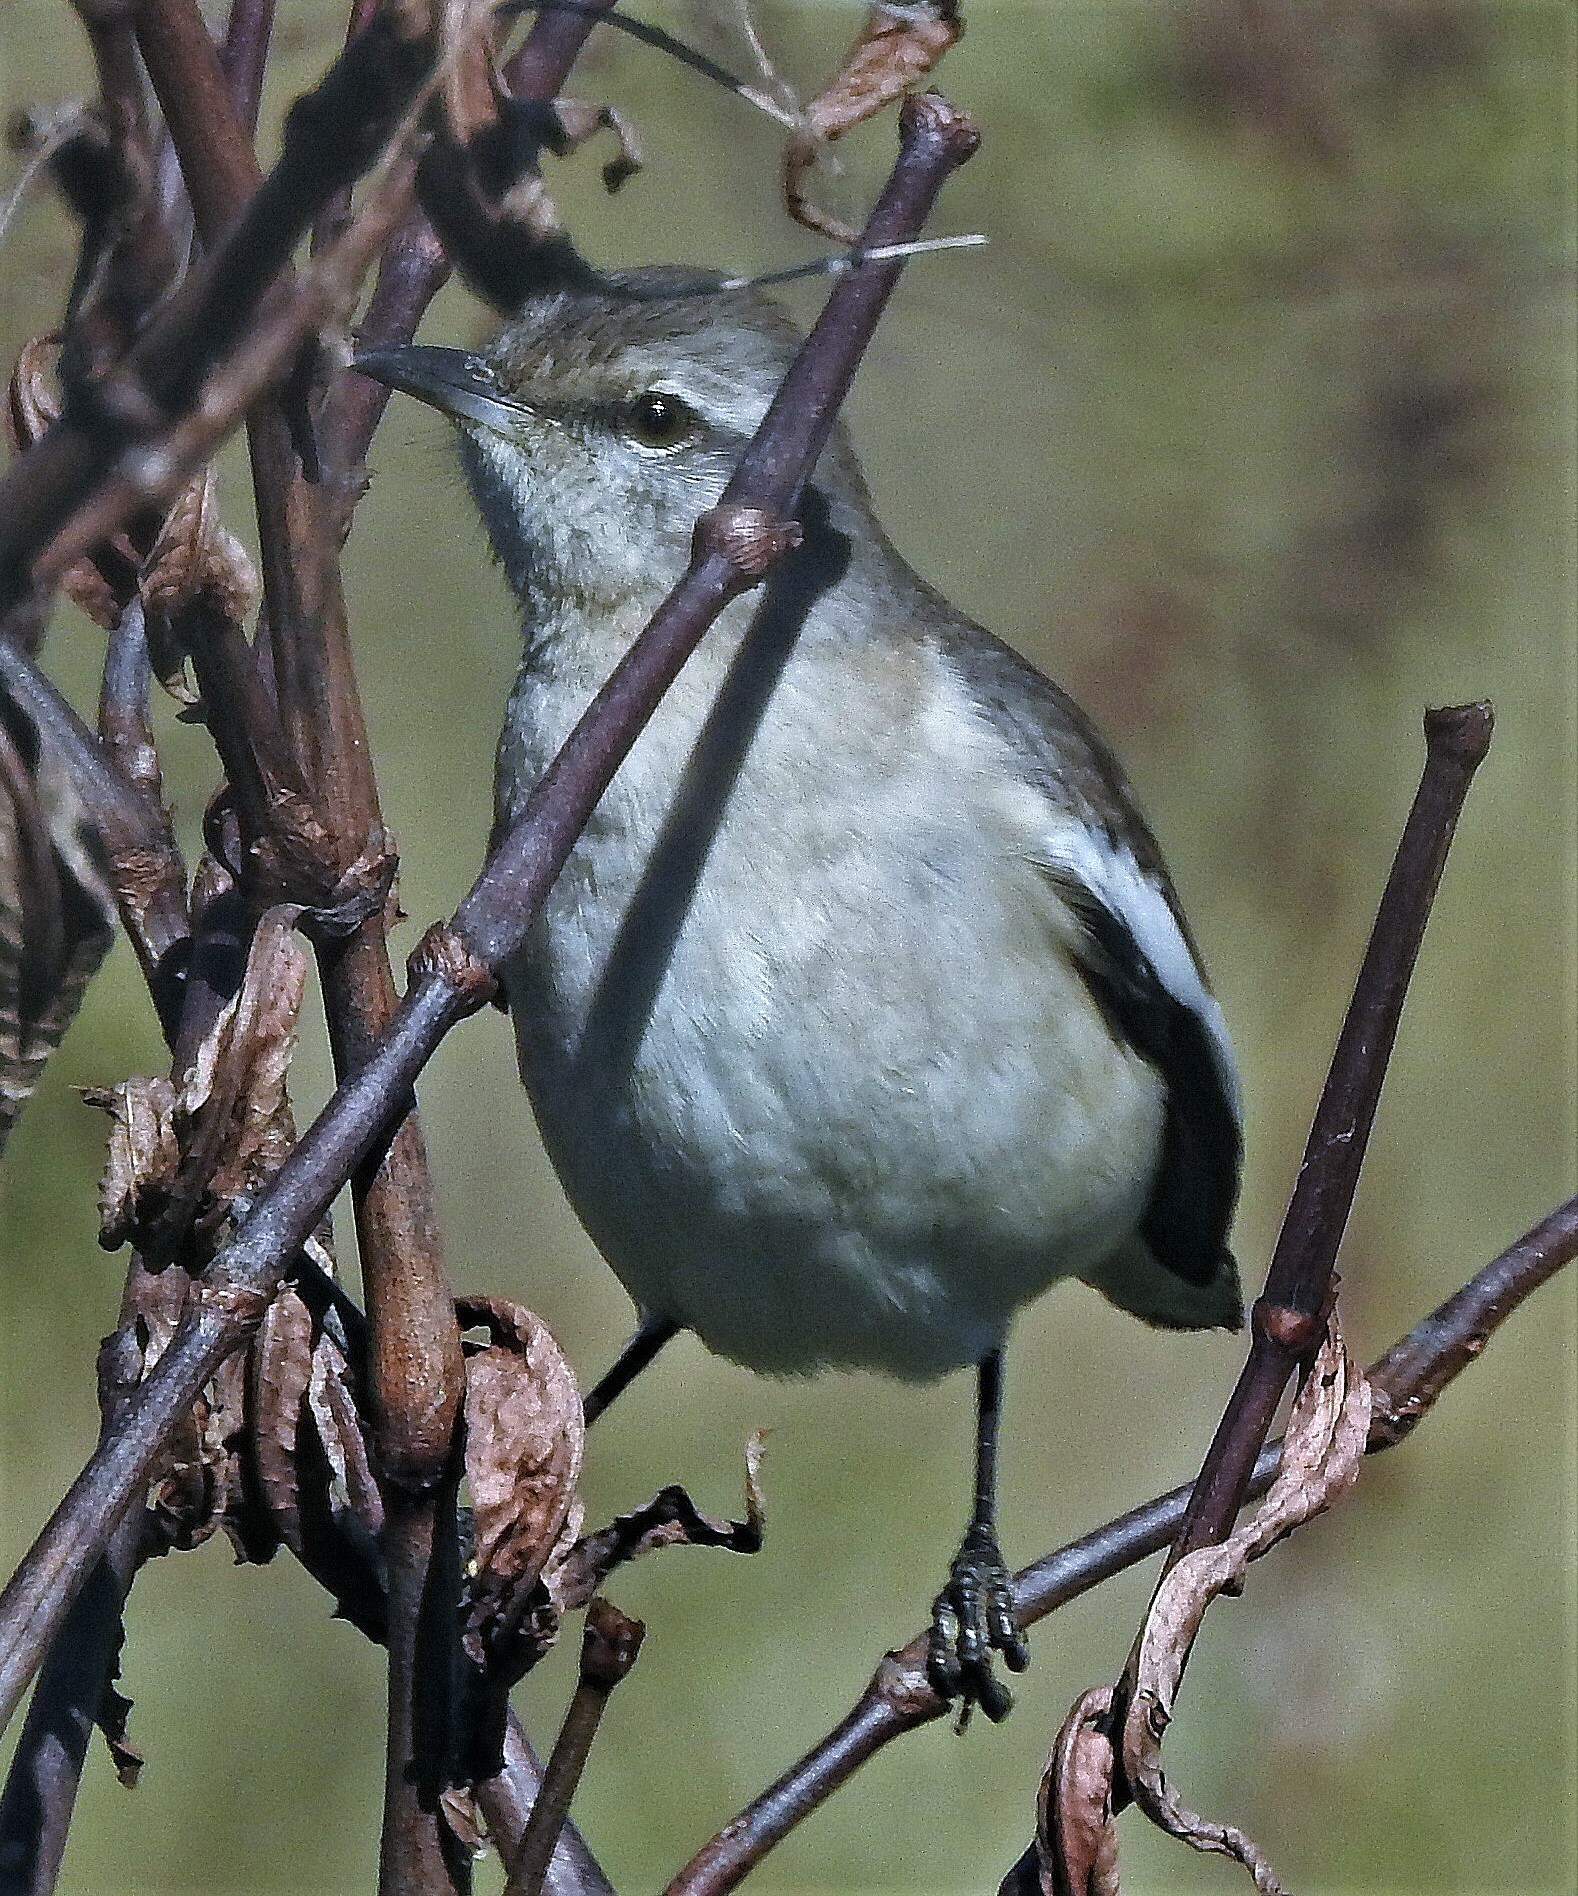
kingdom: Animalia
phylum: Chordata
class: Aves
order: Passeriformes
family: Mimidae
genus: Mimus
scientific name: Mimus triurus
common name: White-banded mockingbird
